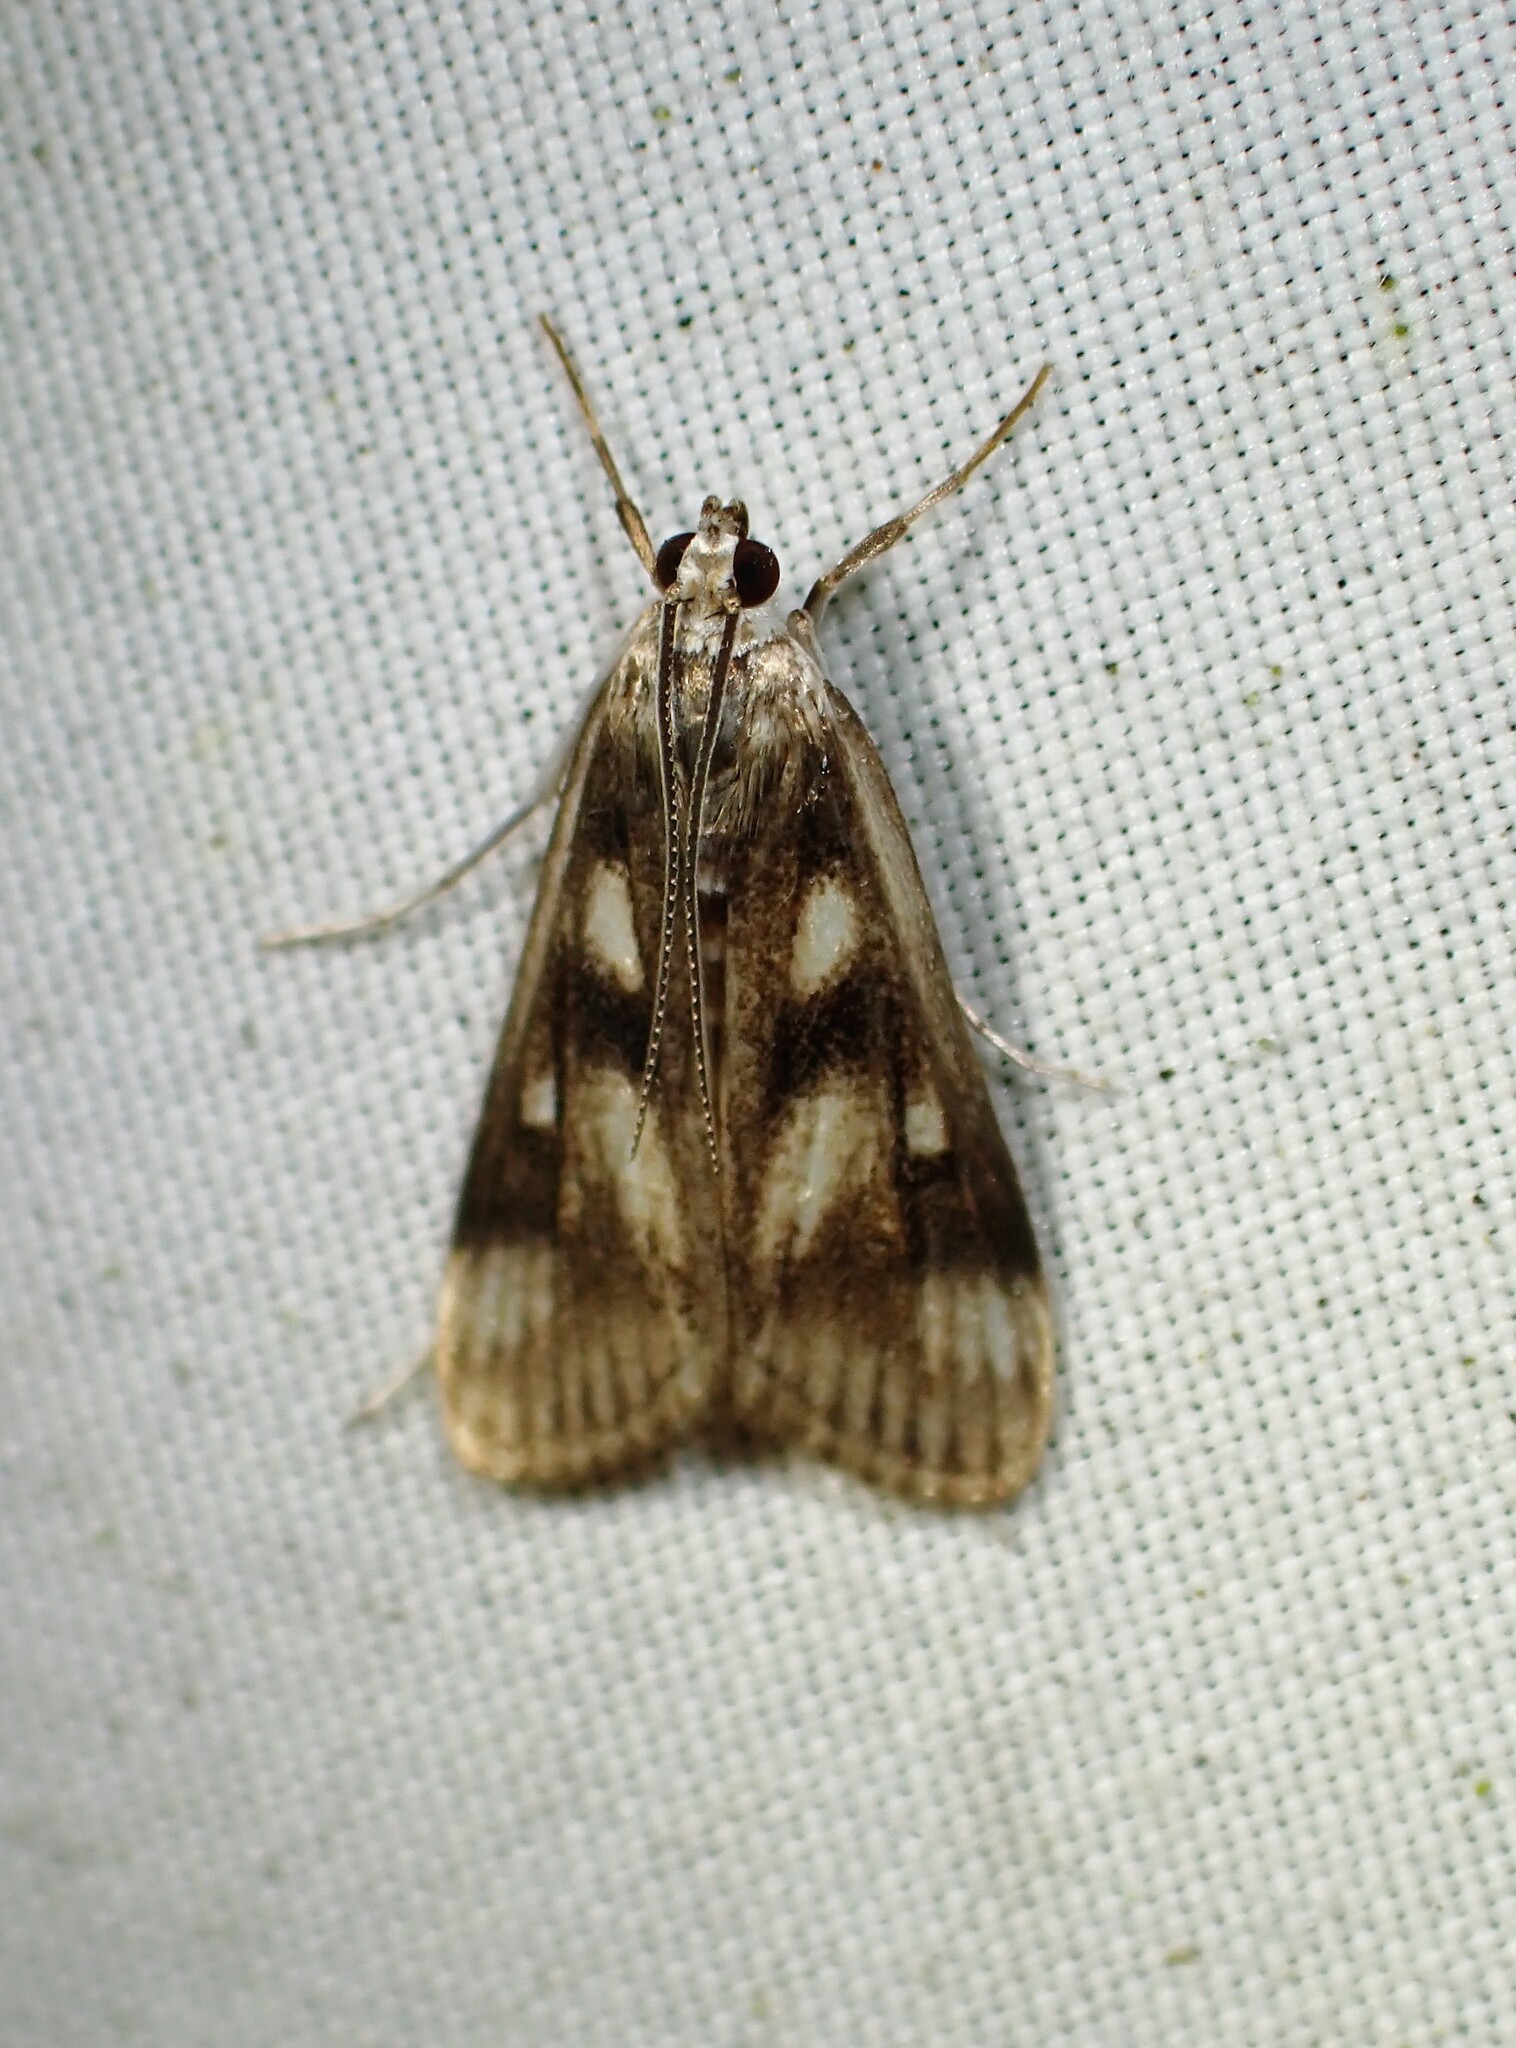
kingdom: Animalia
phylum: Arthropoda
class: Insecta
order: Lepidoptera
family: Crambidae
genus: Parapoynx
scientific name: Parapoynx maculalis
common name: Polymorphic pondweed moth
